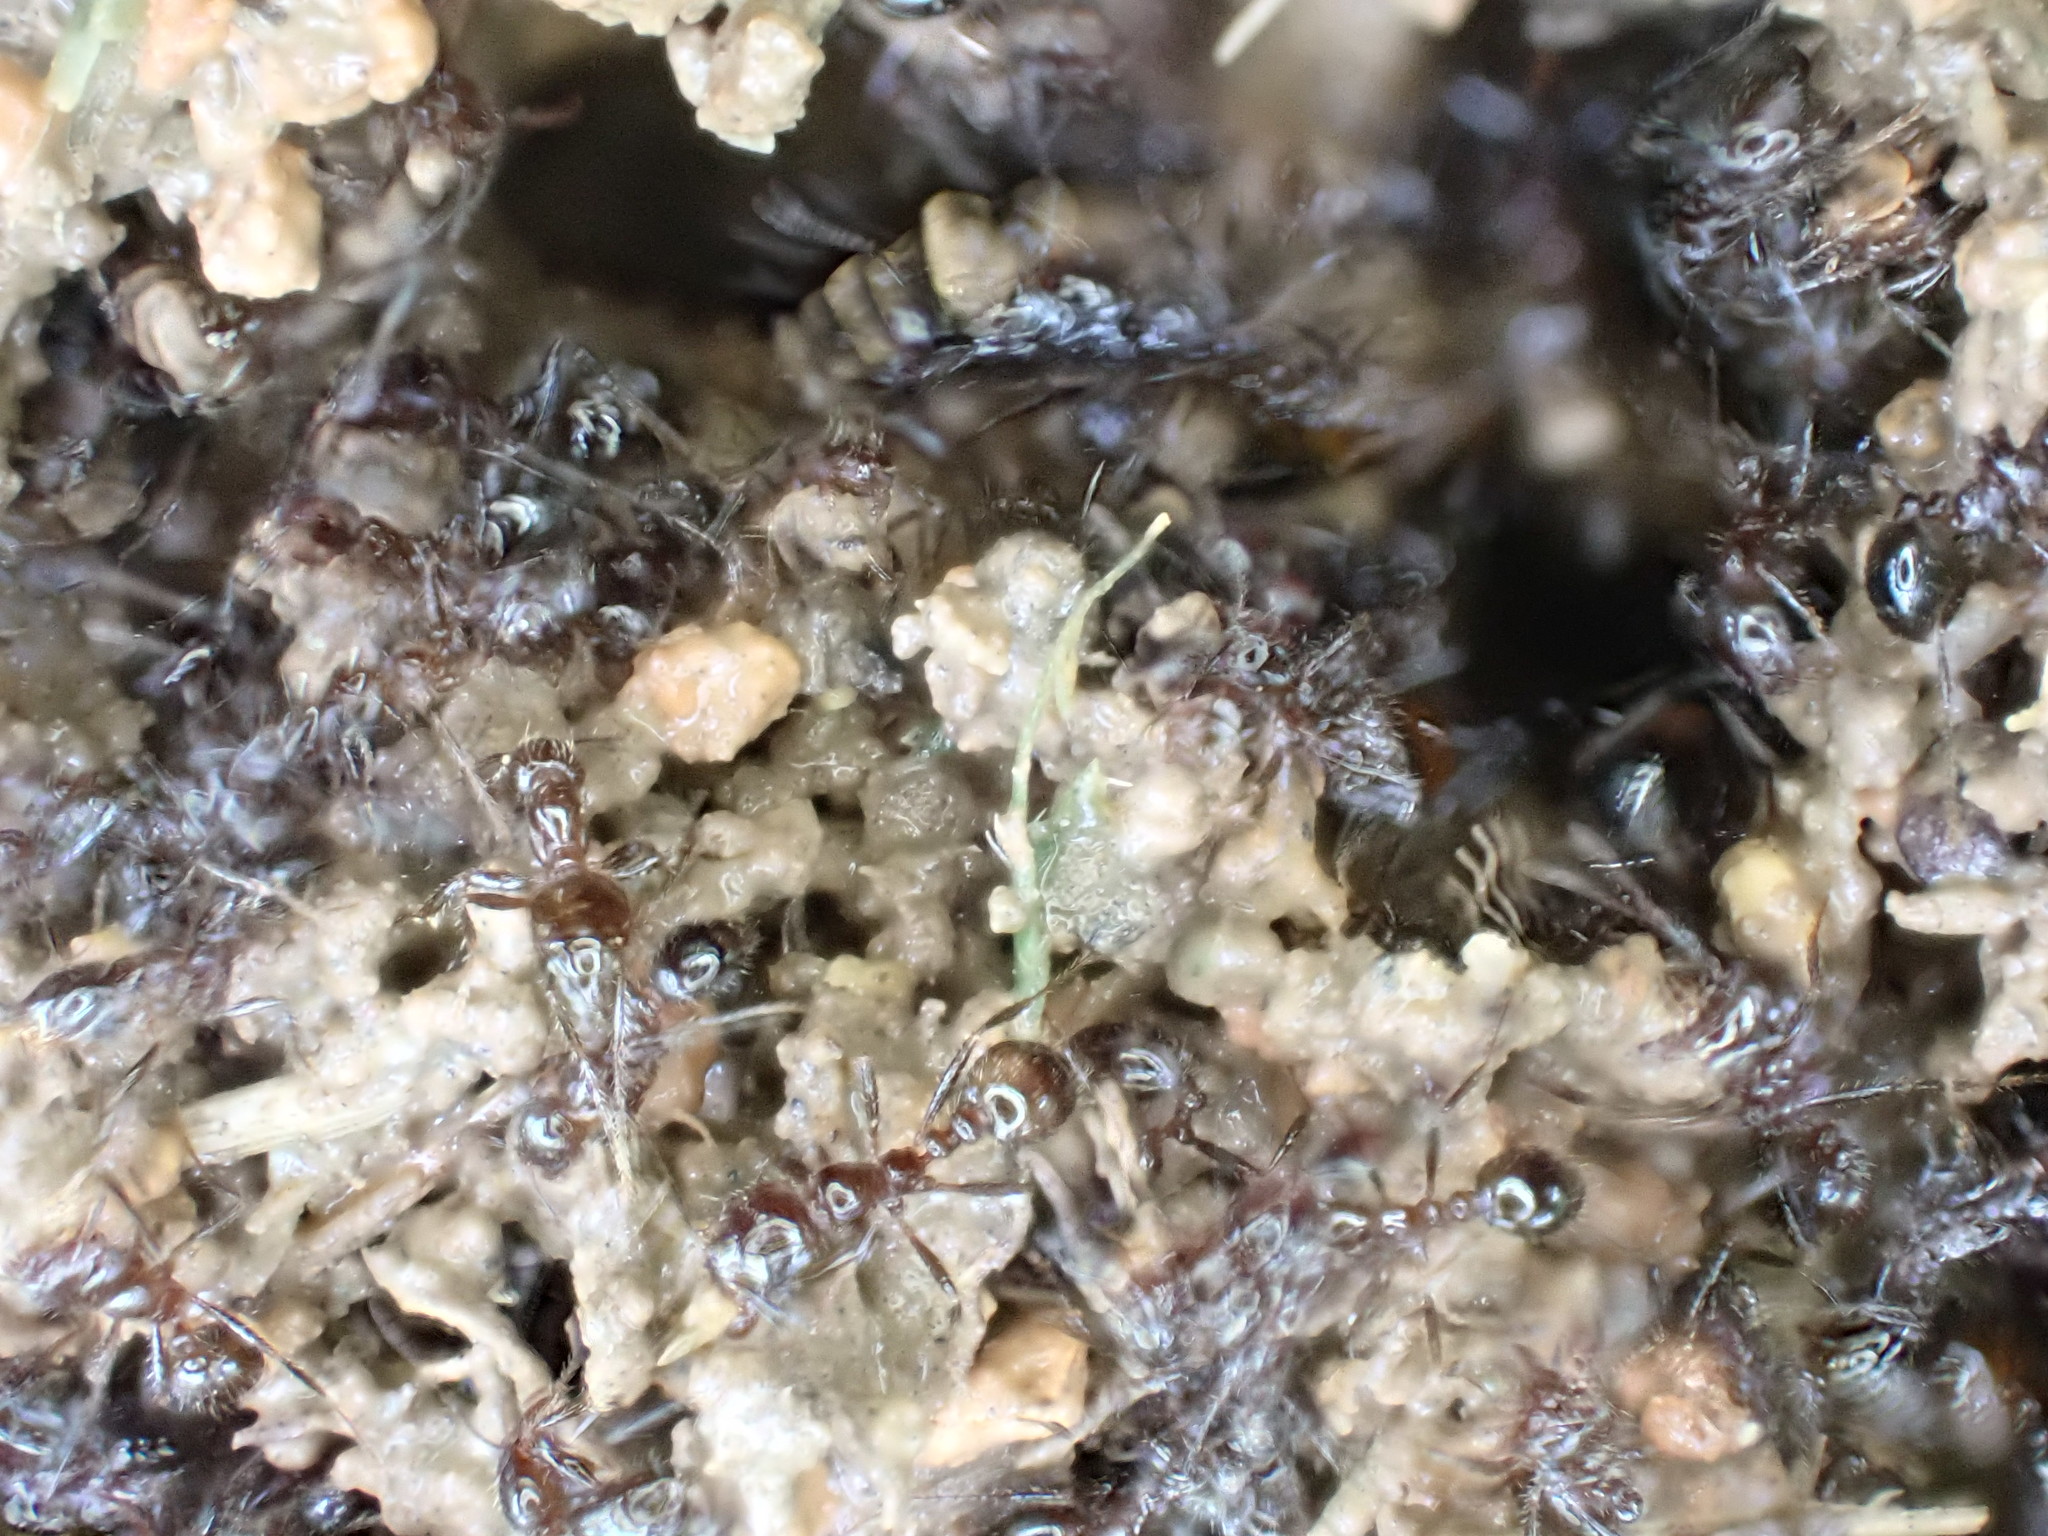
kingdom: Animalia
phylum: Arthropoda
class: Insecta
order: Hymenoptera
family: Formicidae
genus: Solenopsis
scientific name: Solenopsis
